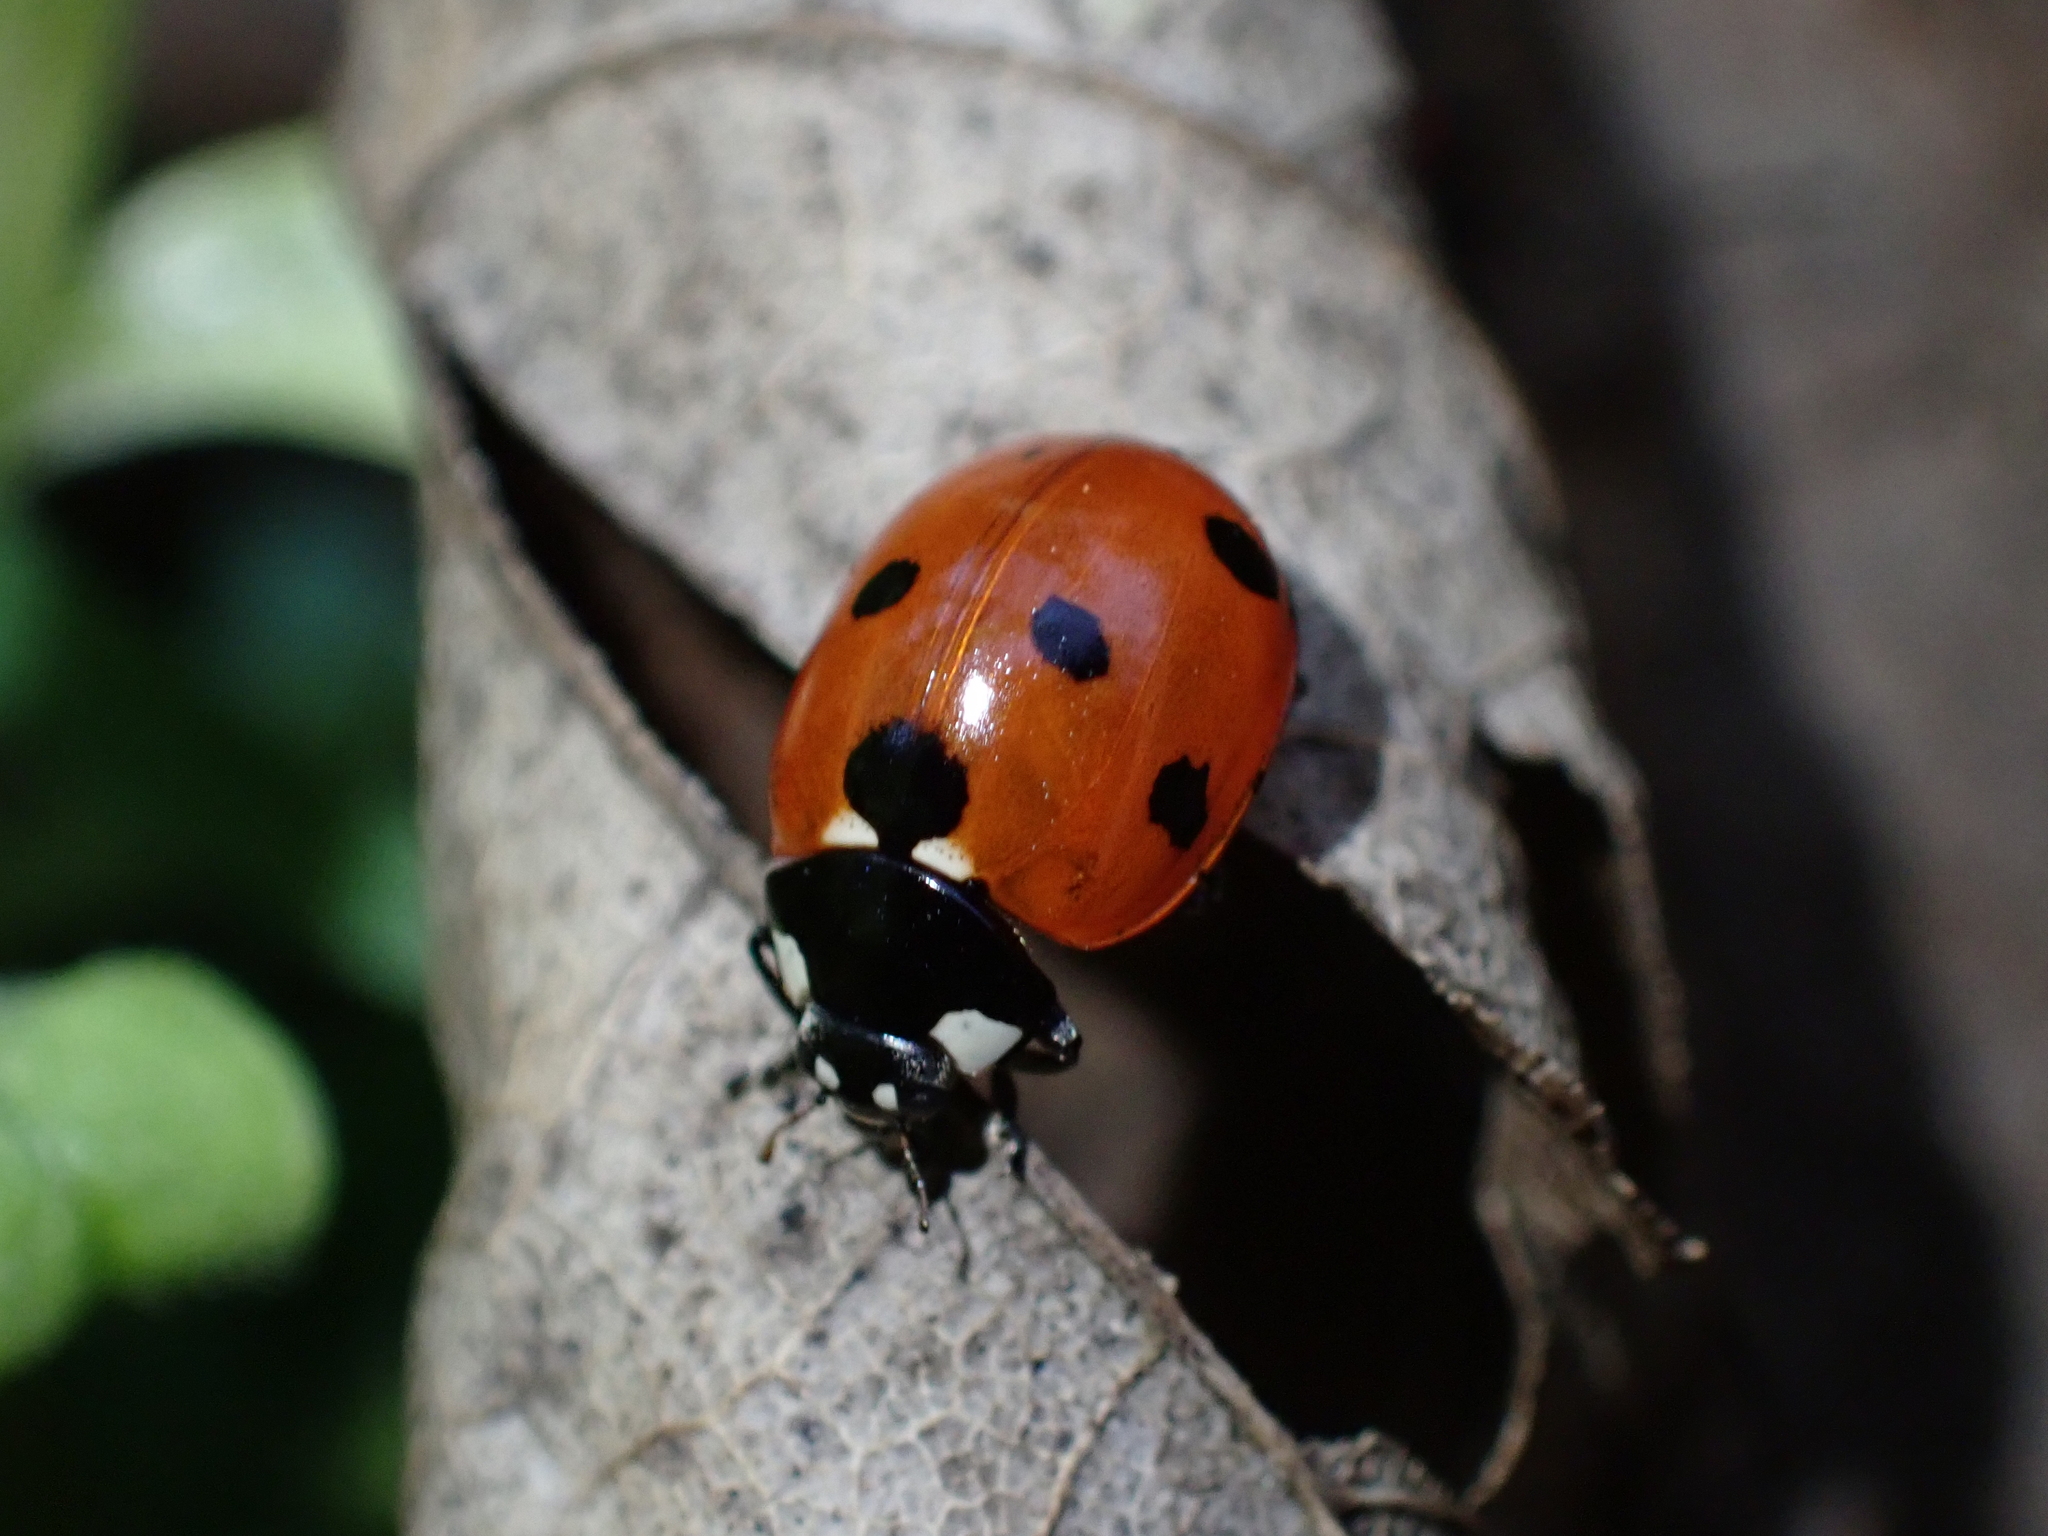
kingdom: Animalia
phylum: Arthropoda
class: Insecta
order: Coleoptera
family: Coccinellidae
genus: Coccinella
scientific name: Coccinella septempunctata
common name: Sevenspotted lady beetle
